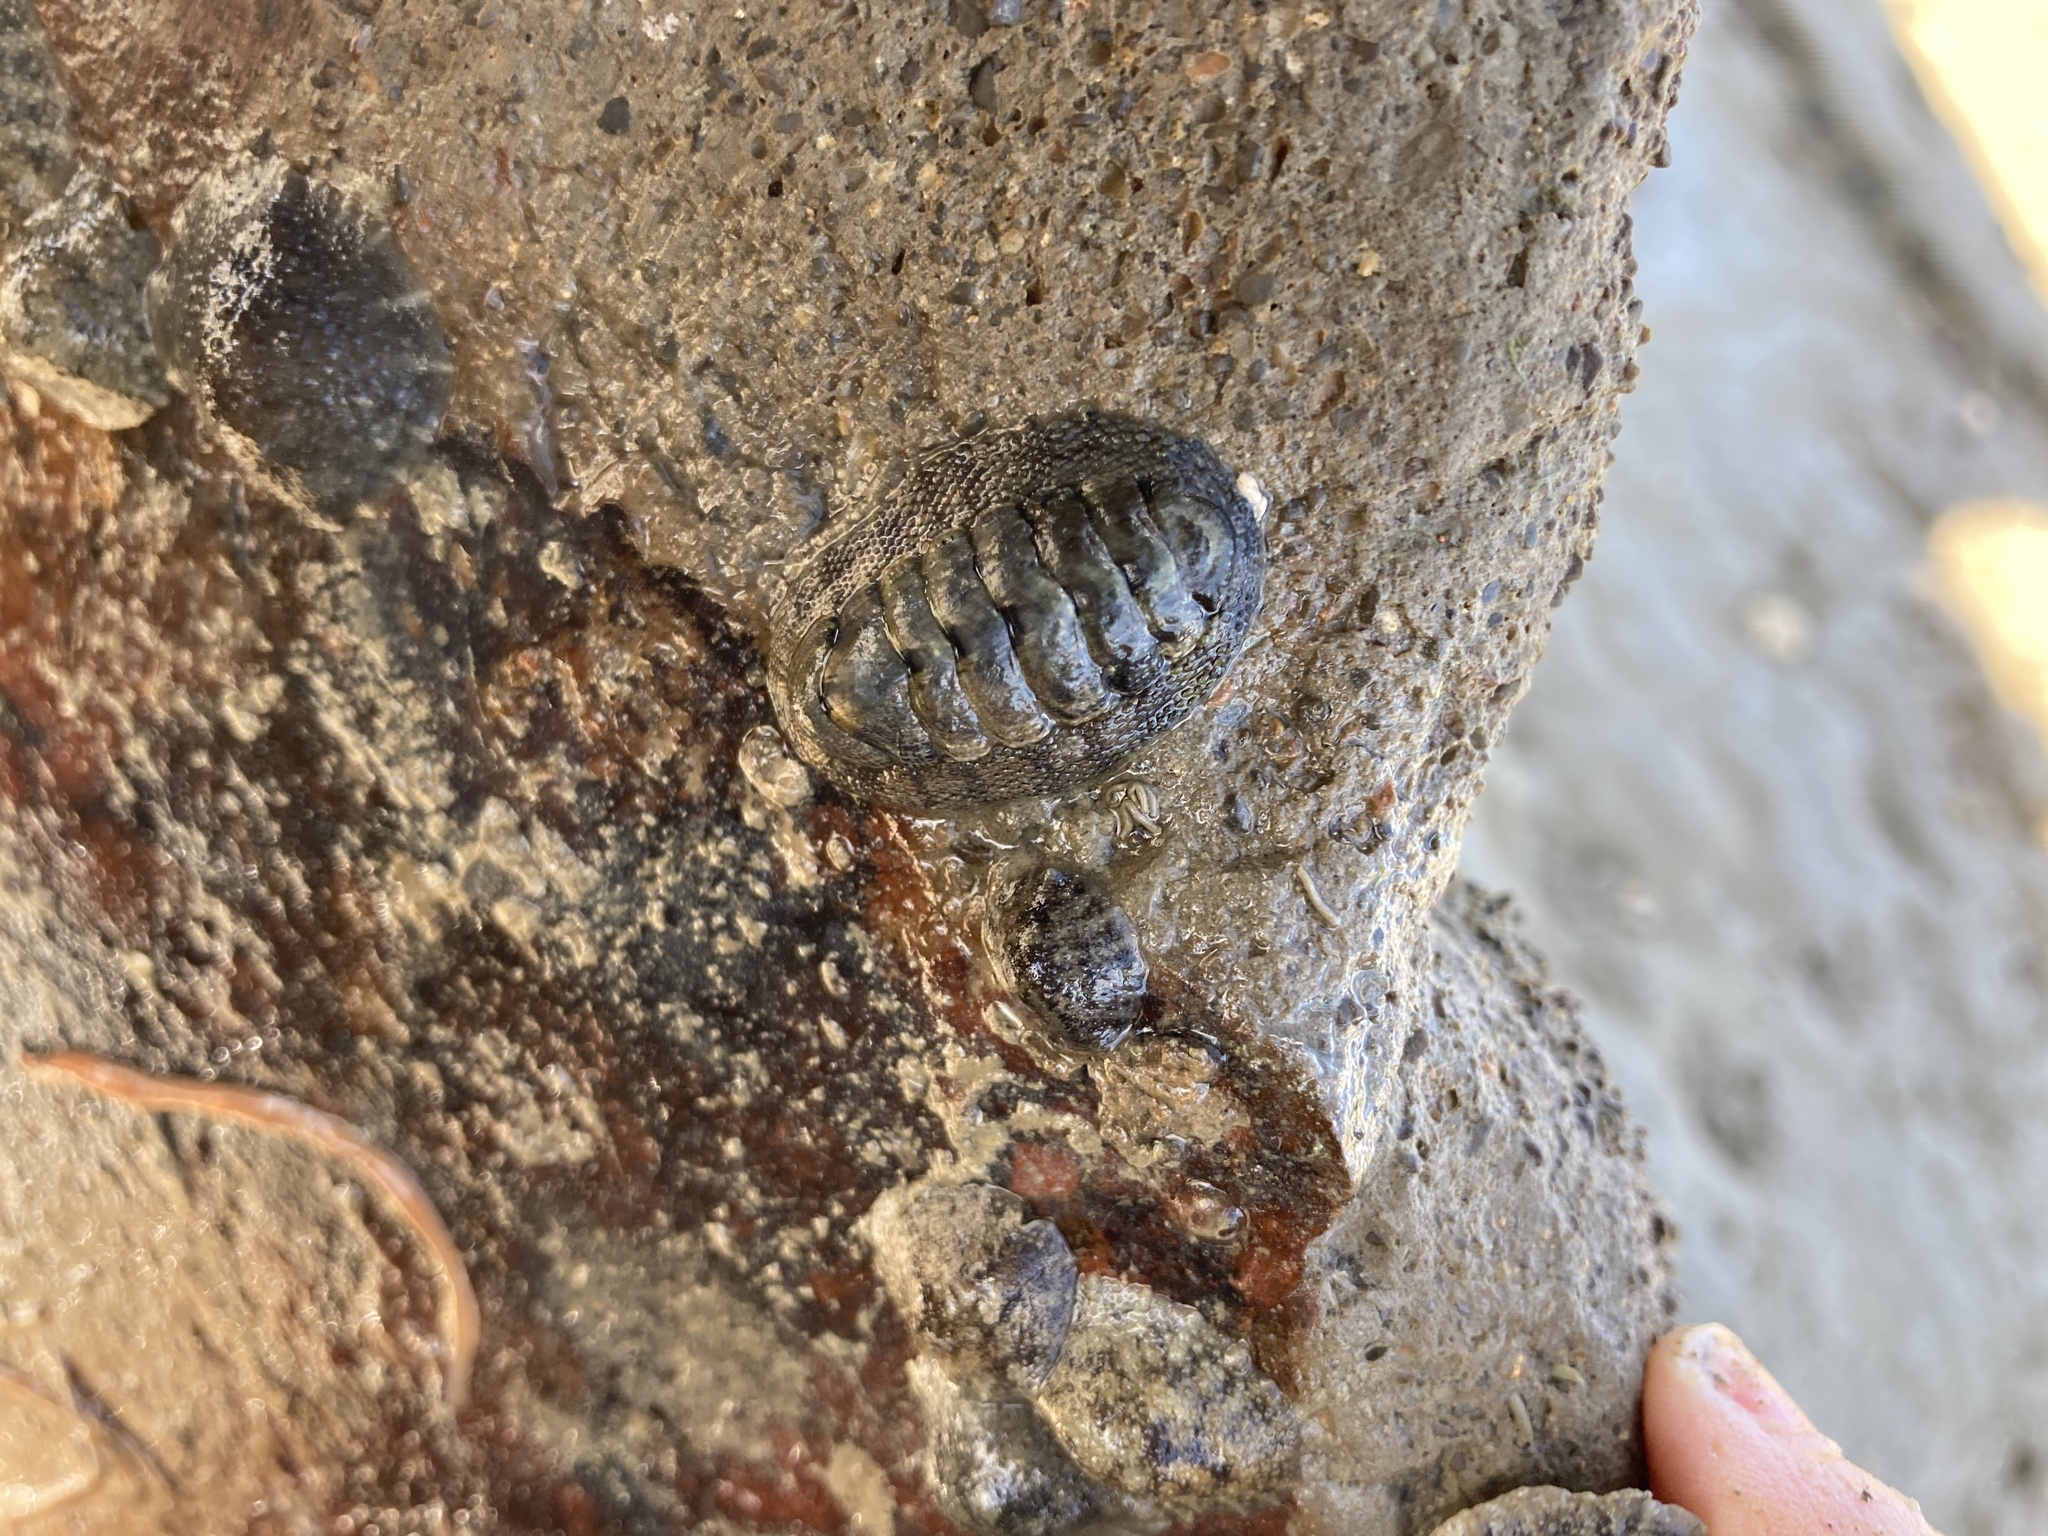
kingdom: Animalia
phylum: Mollusca
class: Polyplacophora
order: Chitonida
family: Chitonidae
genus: Sypharochiton
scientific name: Sypharochiton pelliserpentis
